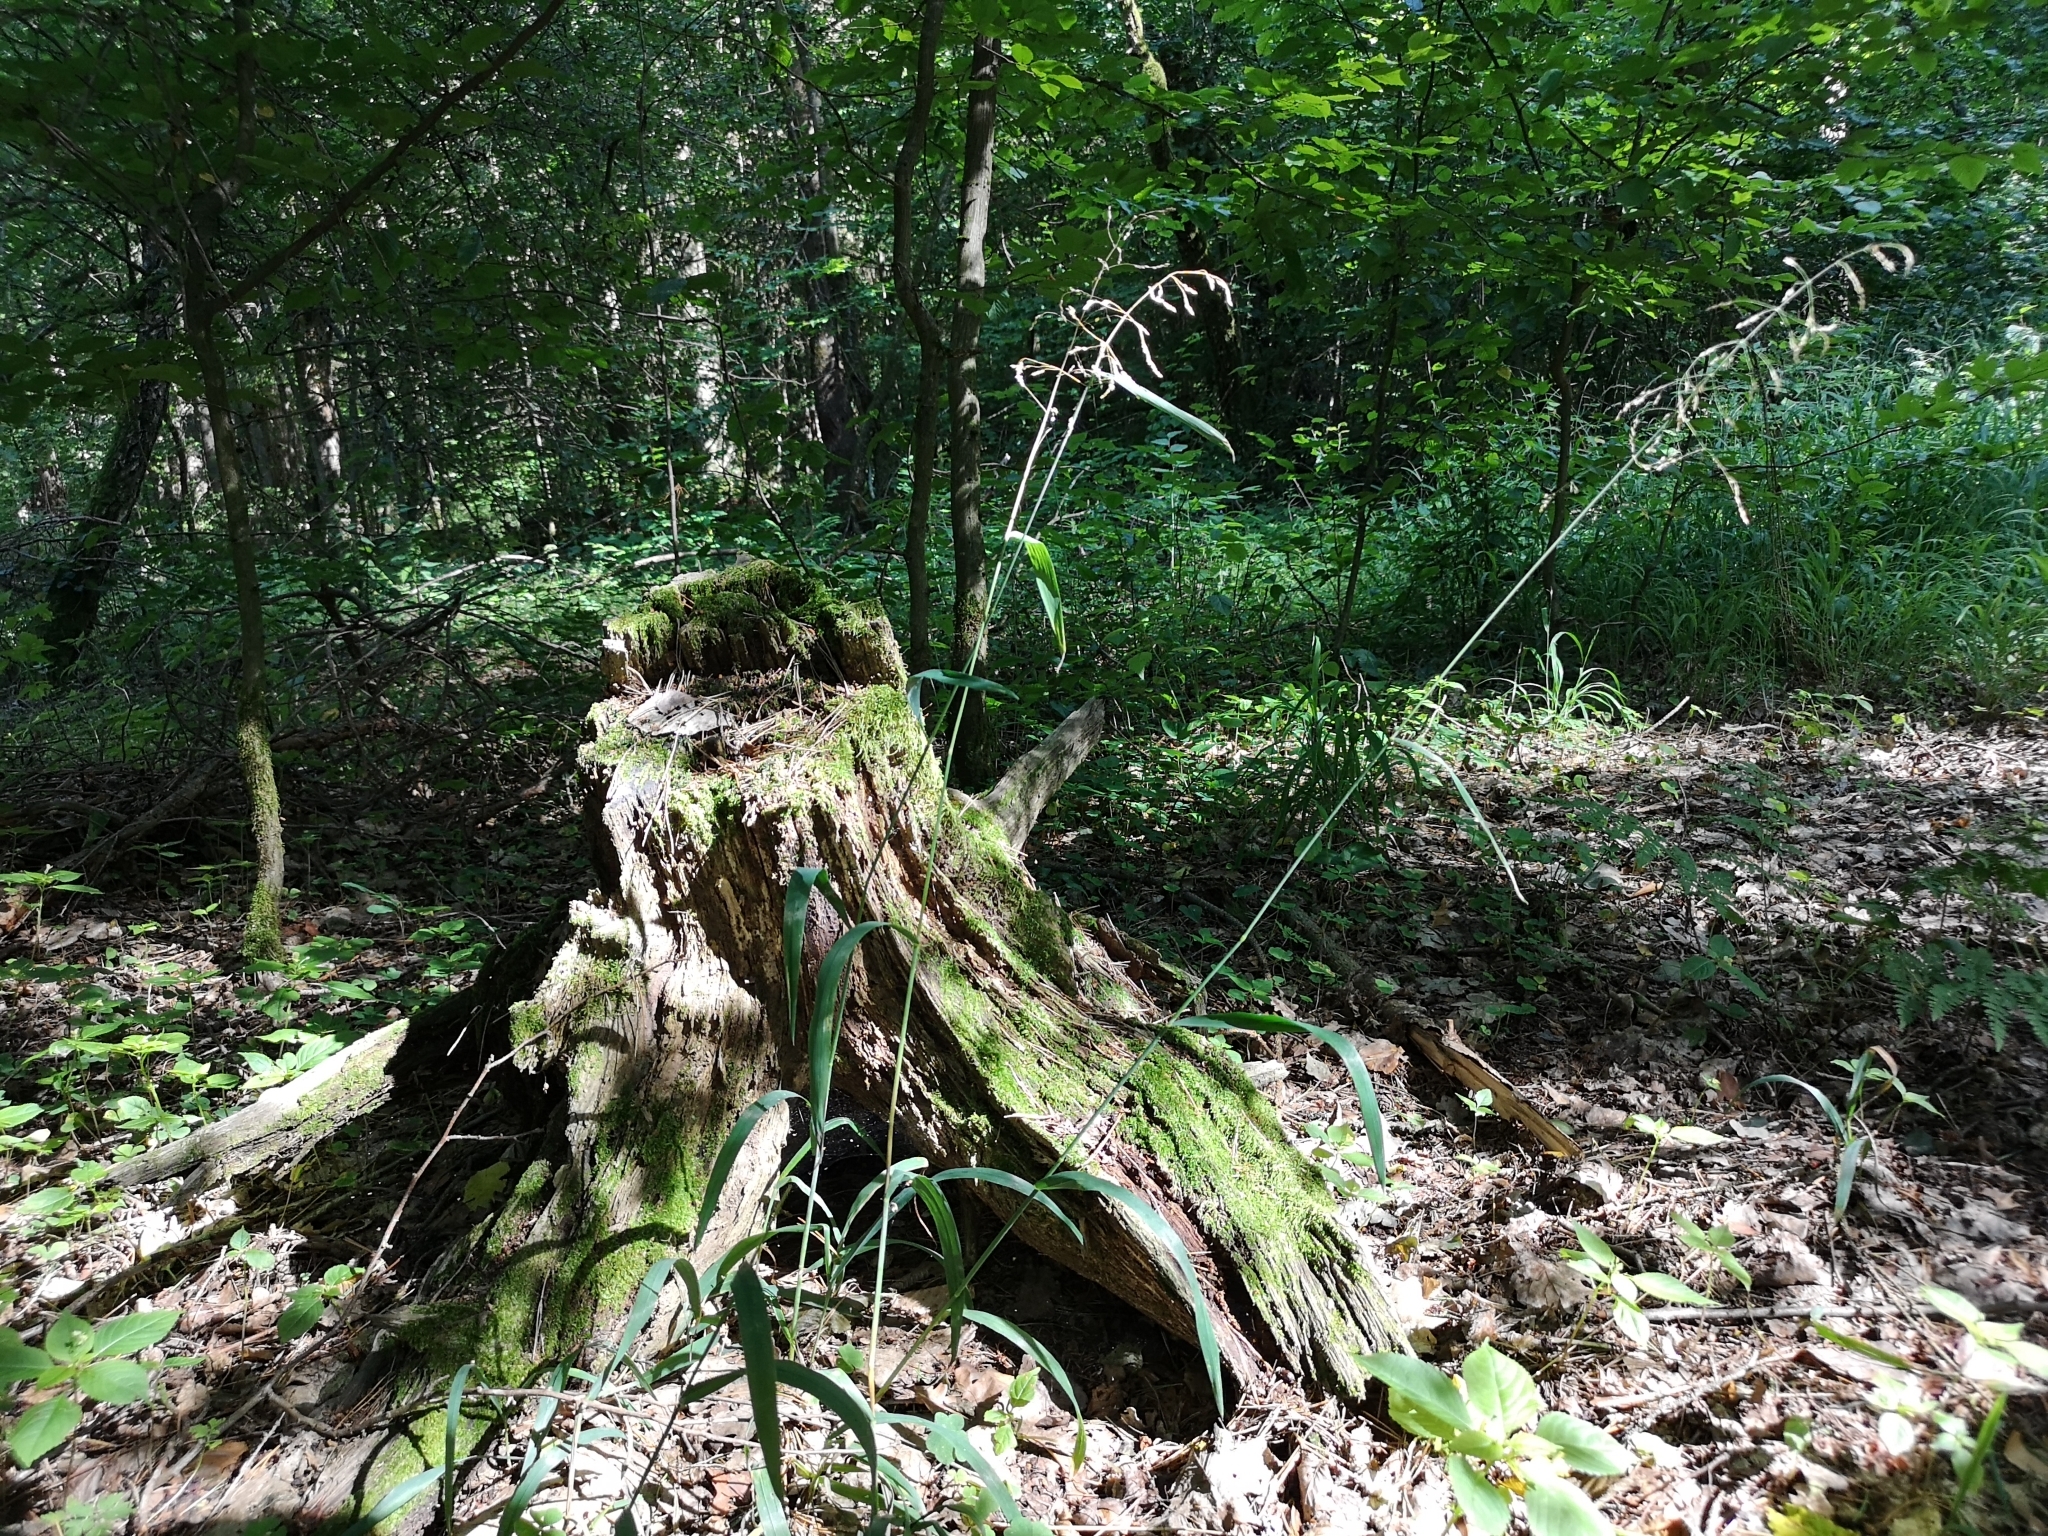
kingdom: Plantae
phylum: Tracheophyta
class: Liliopsida
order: Poales
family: Poaceae
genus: Milium
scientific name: Milium effusum
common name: Wood millet
